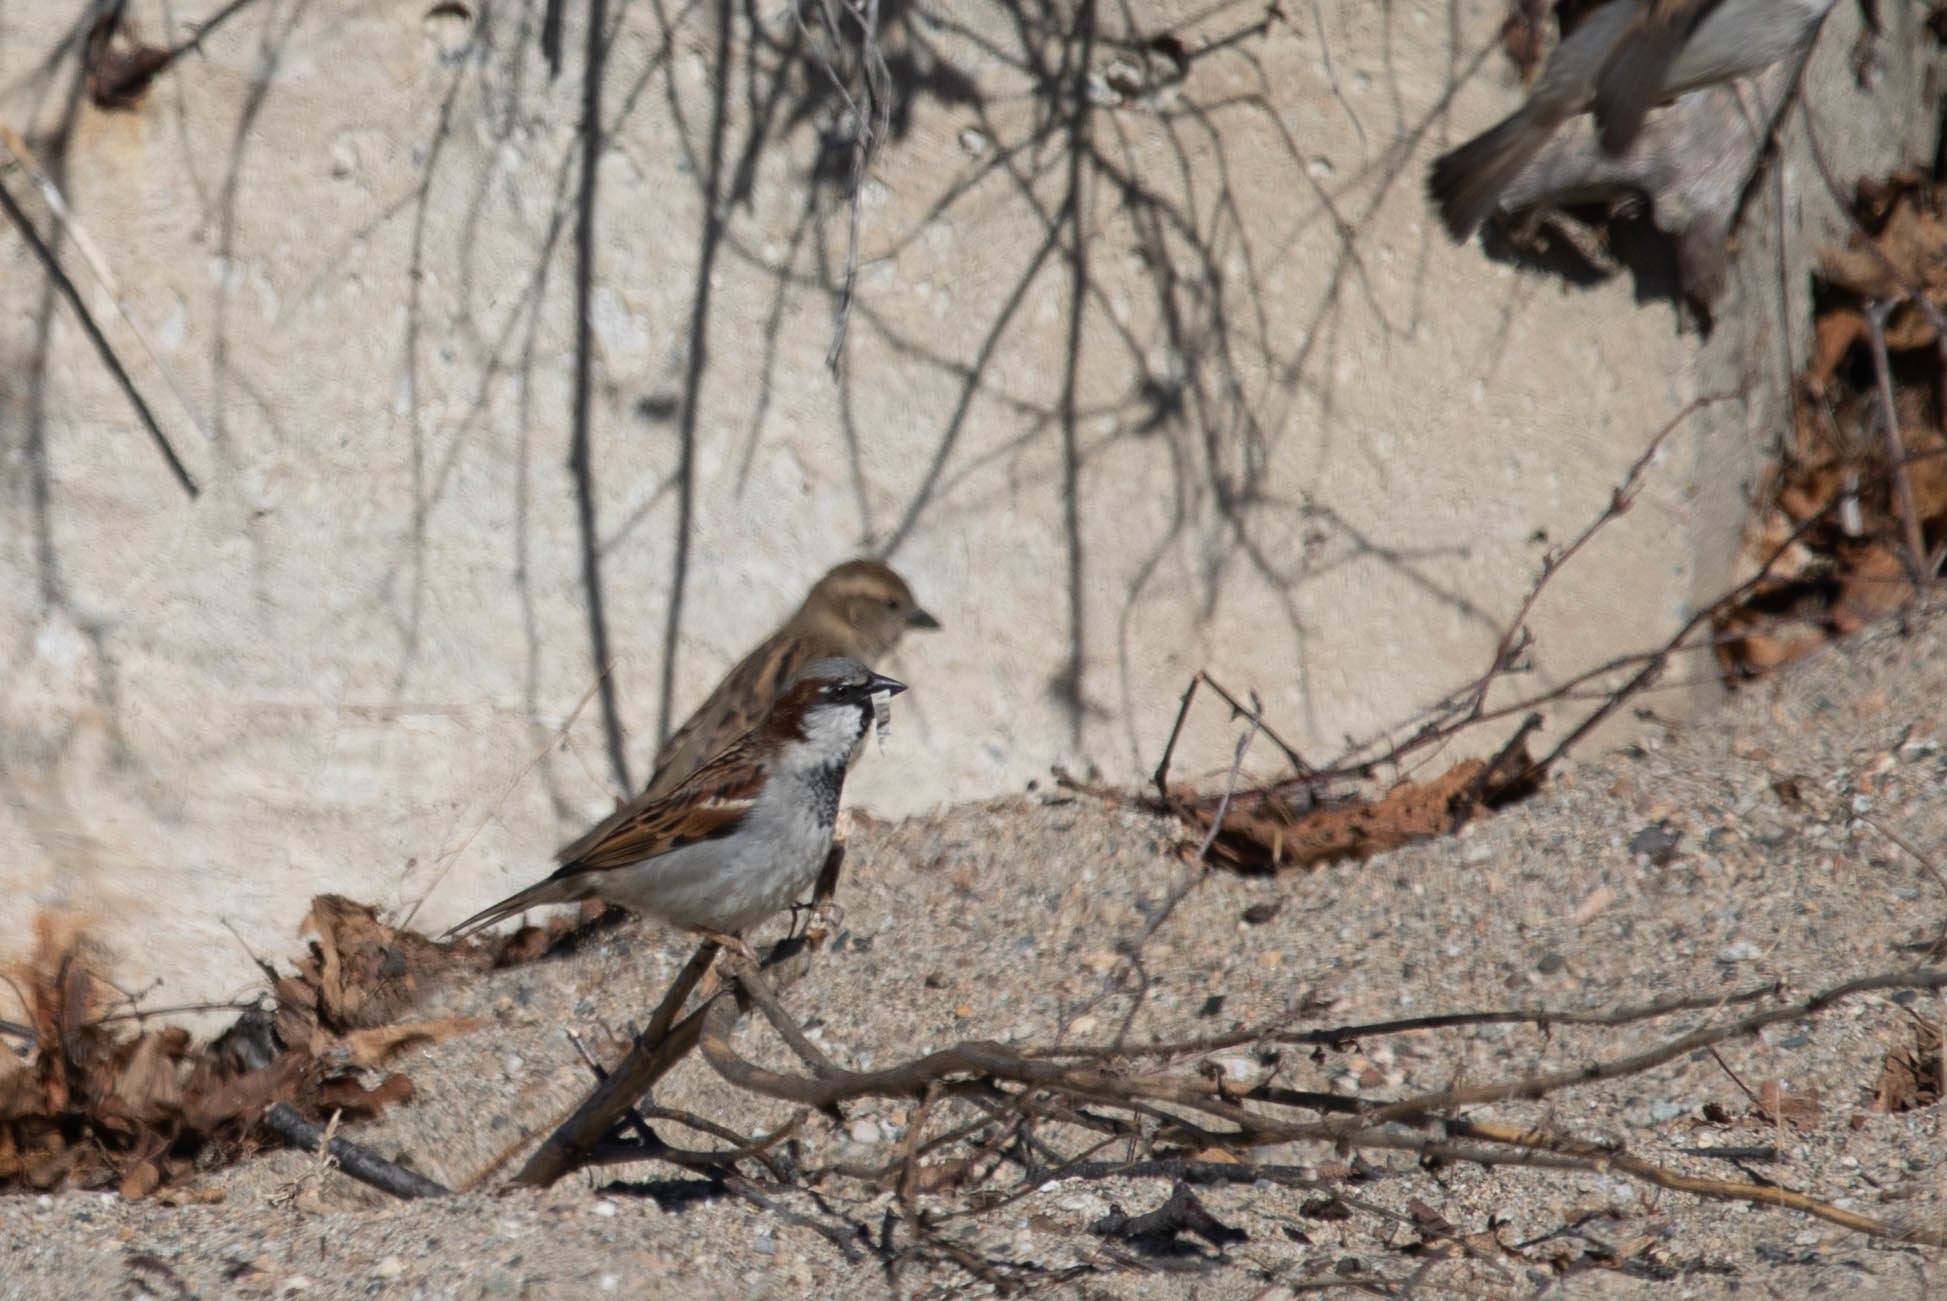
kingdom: Animalia
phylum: Chordata
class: Aves
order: Passeriformes
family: Passeridae
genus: Passer
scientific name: Passer domesticus
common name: House sparrow
